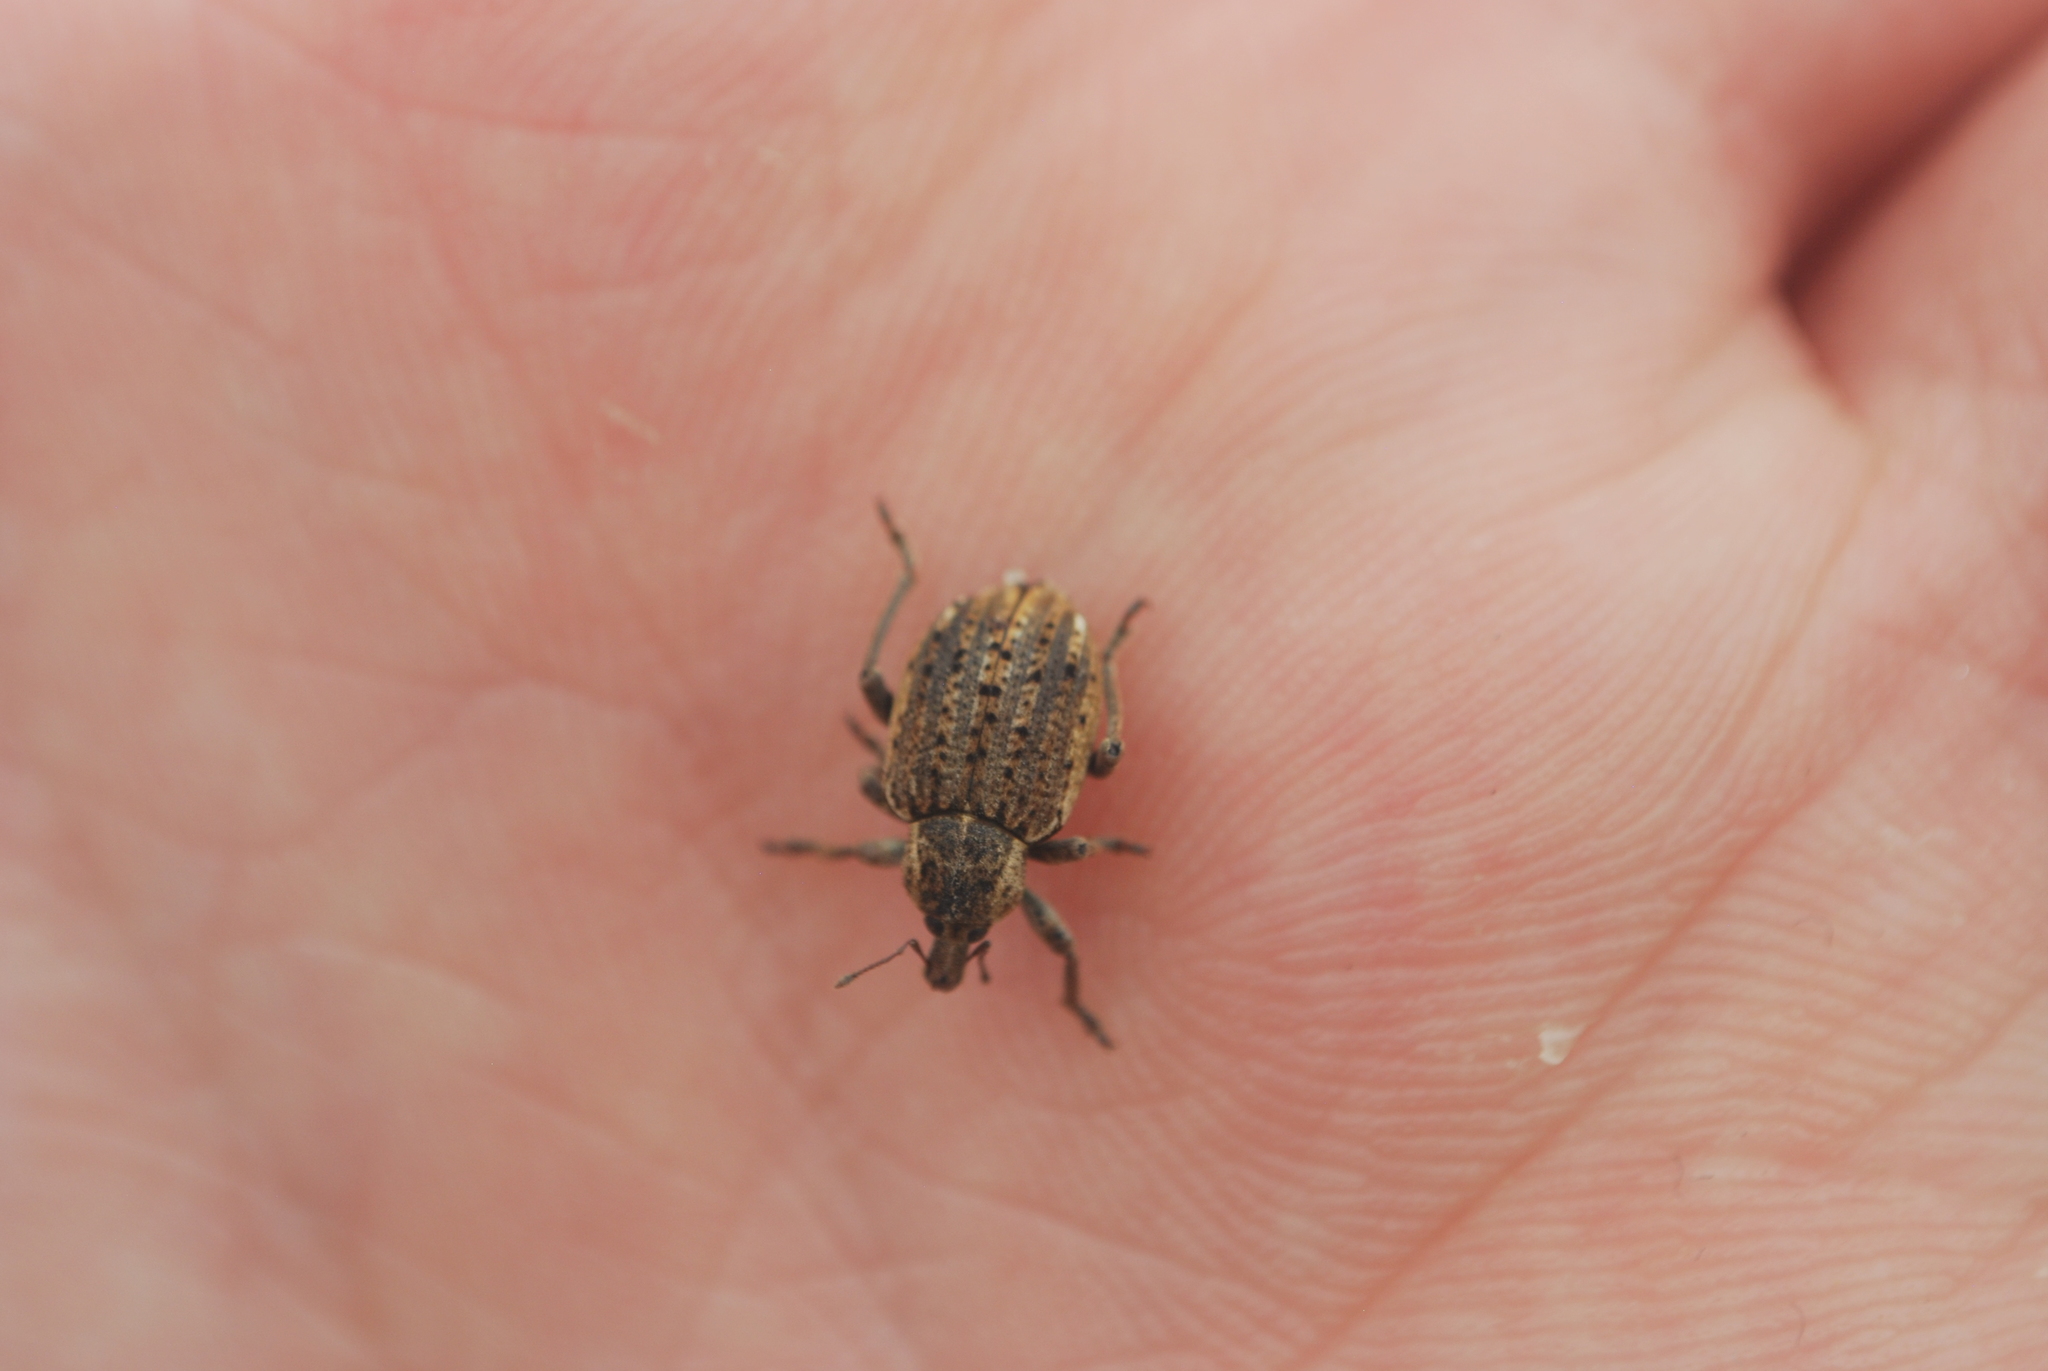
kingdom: Animalia
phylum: Arthropoda
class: Insecta
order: Coleoptera
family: Curculionidae
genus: Brachypera
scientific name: Brachypera zoilus
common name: Clover leaf weevil
